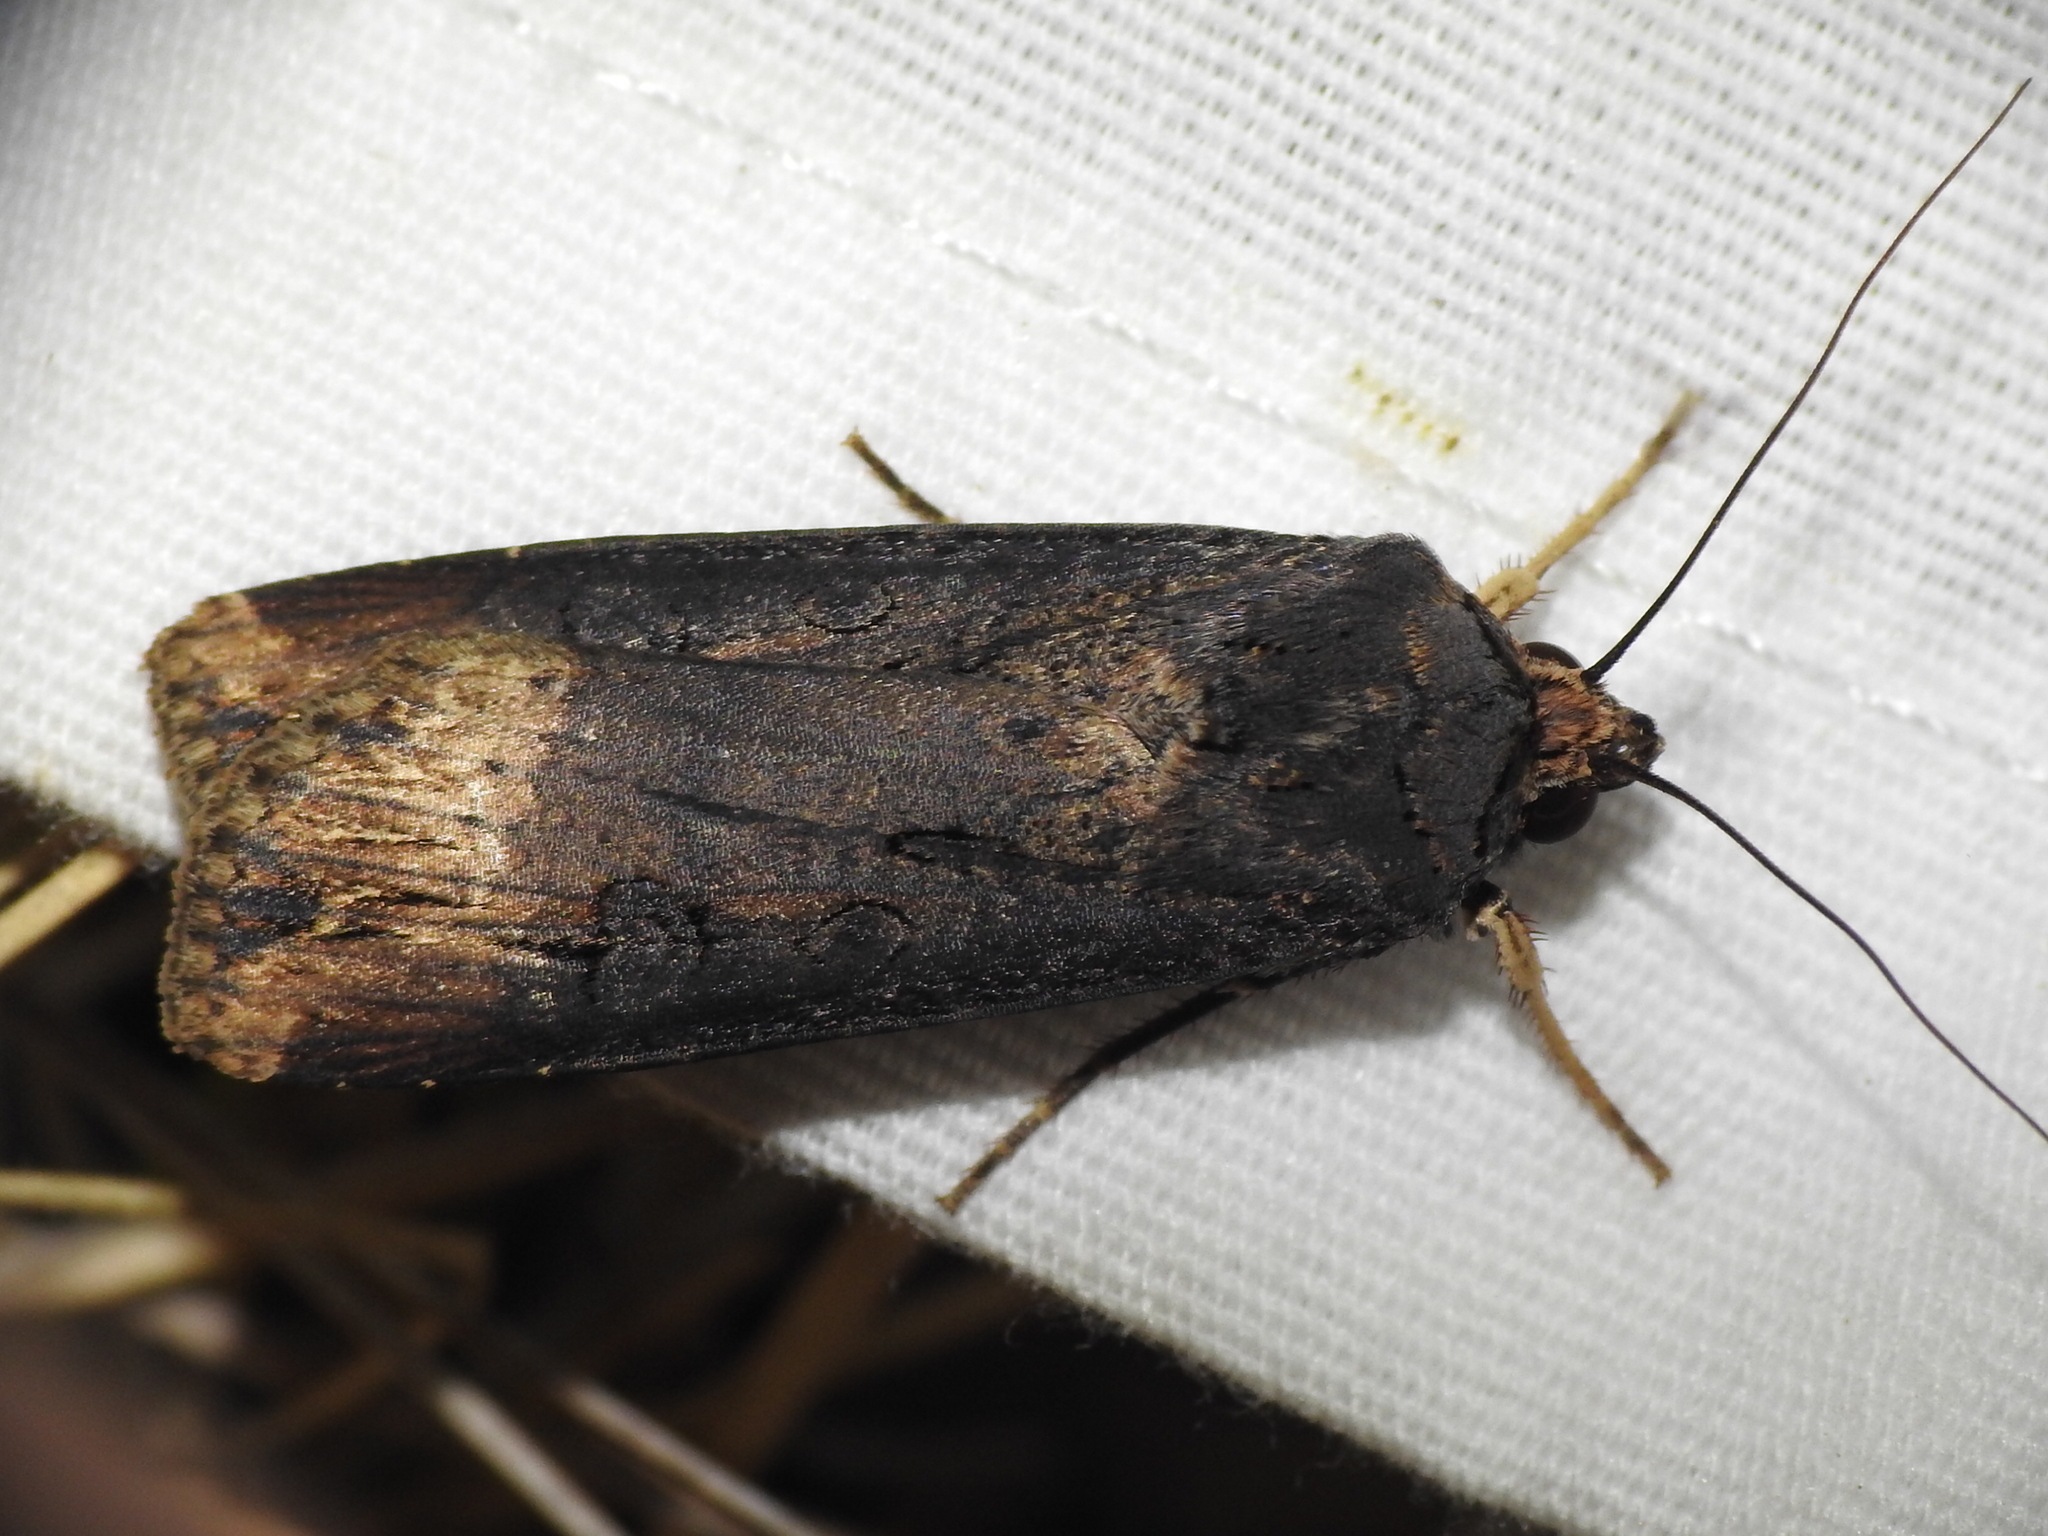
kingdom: Animalia
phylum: Arthropoda
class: Insecta
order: Lepidoptera
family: Noctuidae
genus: Agrotis
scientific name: Agrotis ipsilon
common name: Dark sword-grass
